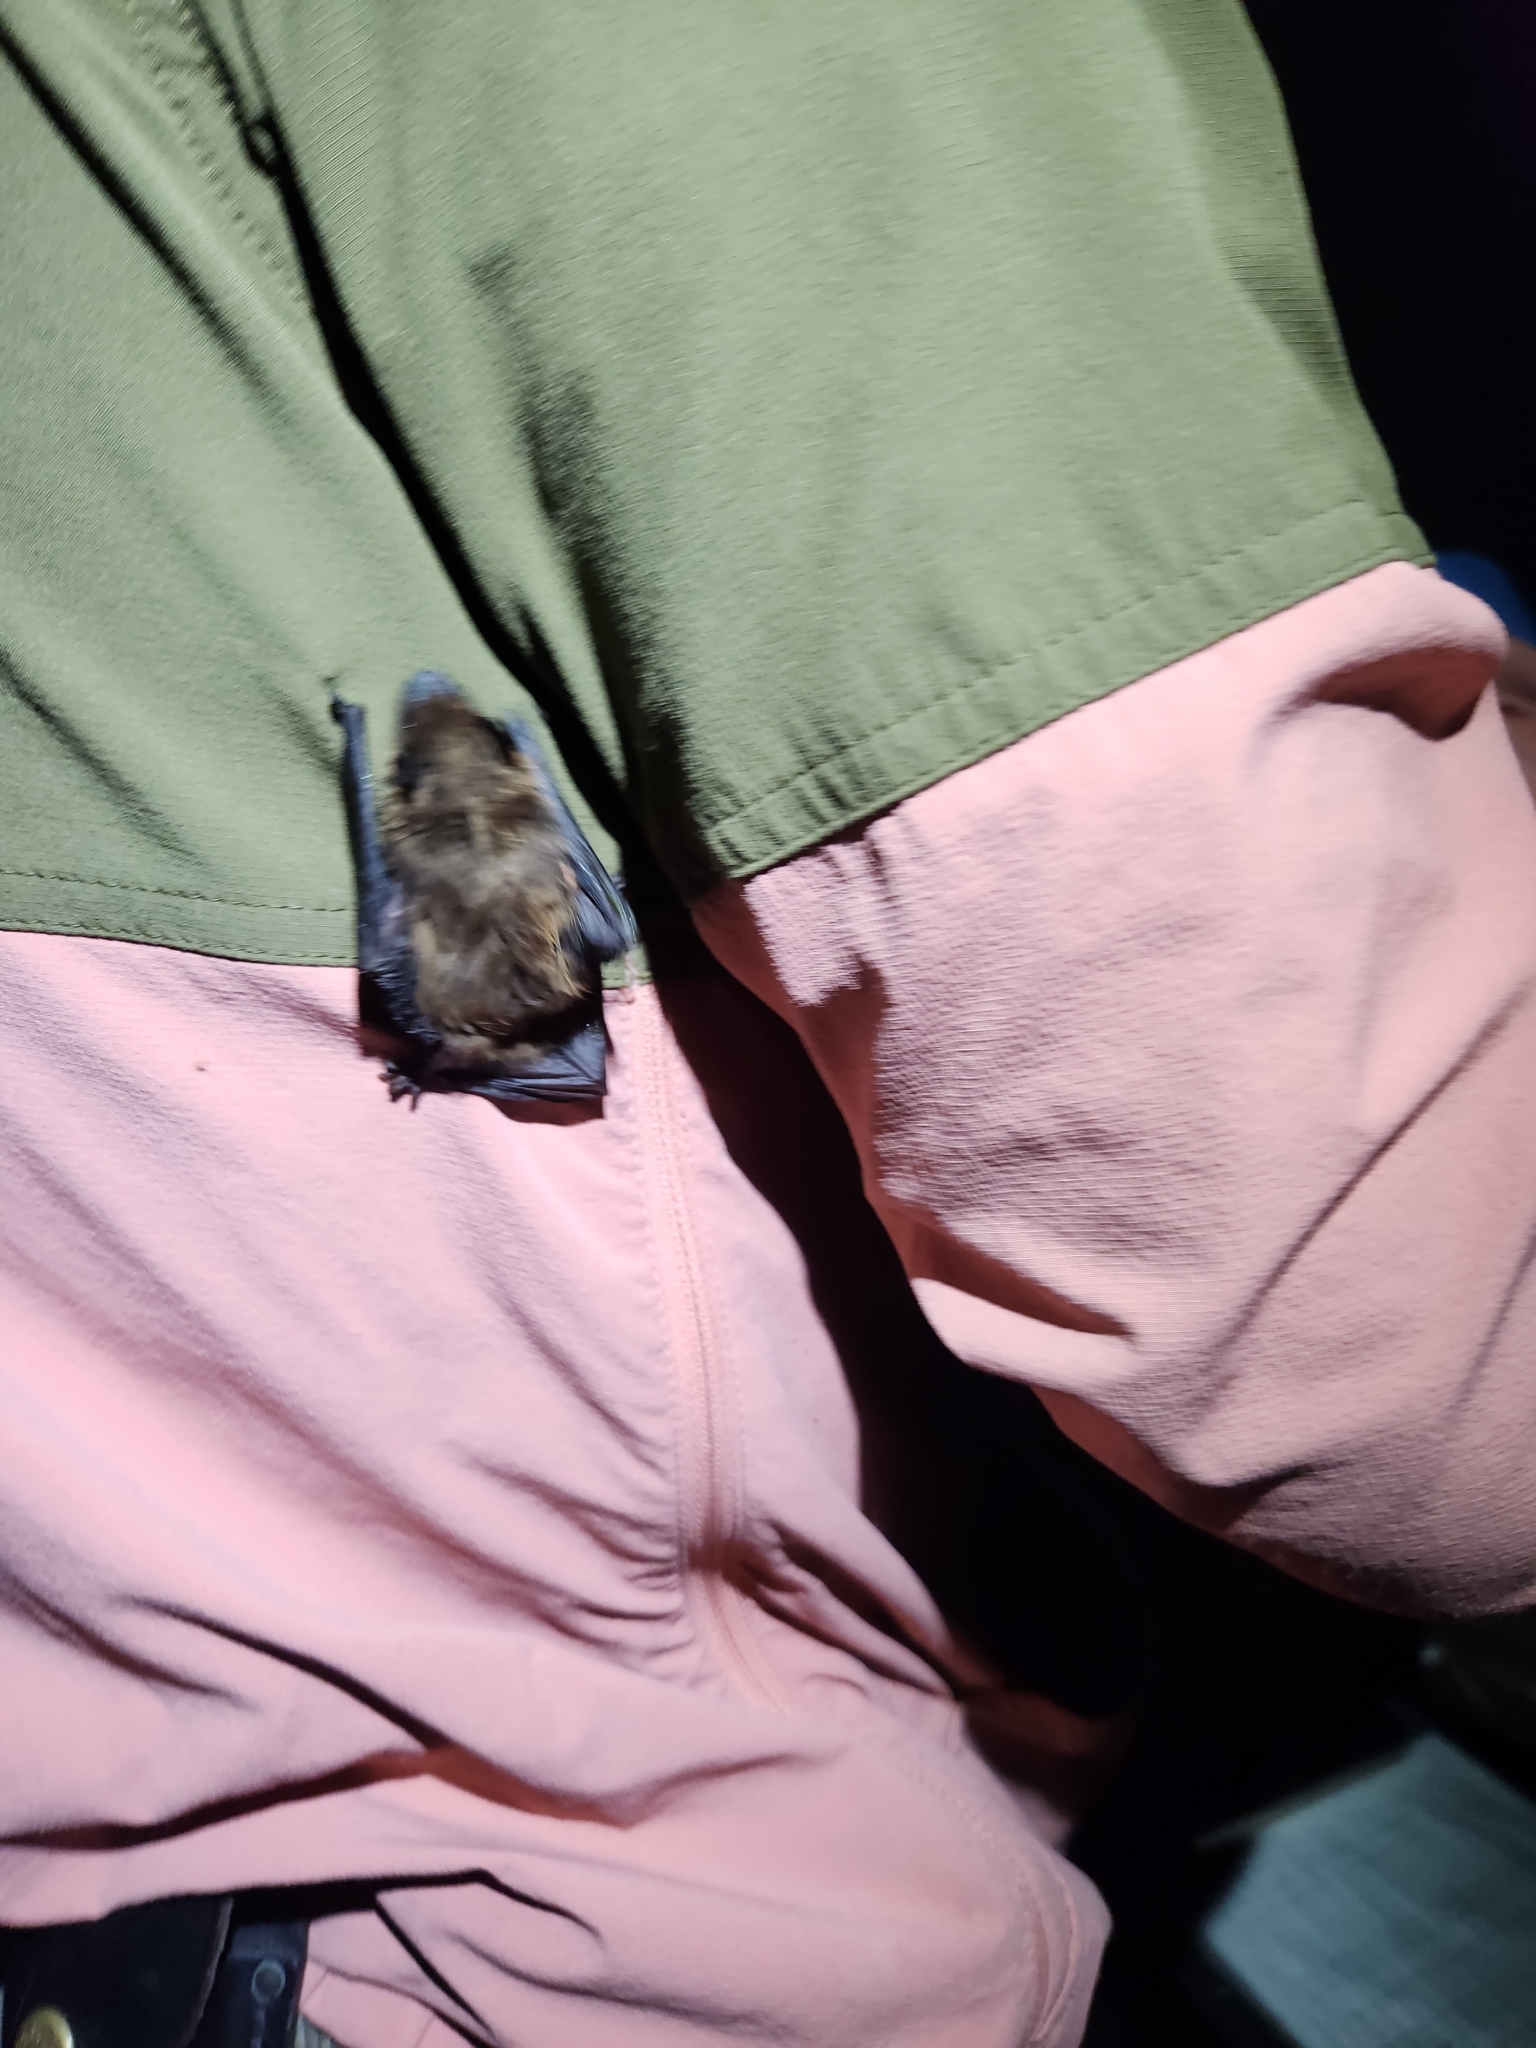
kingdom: Animalia
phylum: Chordata
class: Mammalia
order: Chiroptera
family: Vespertilionidae
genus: Nycticeius
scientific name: Nycticeius humeralis
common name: Evening bat
